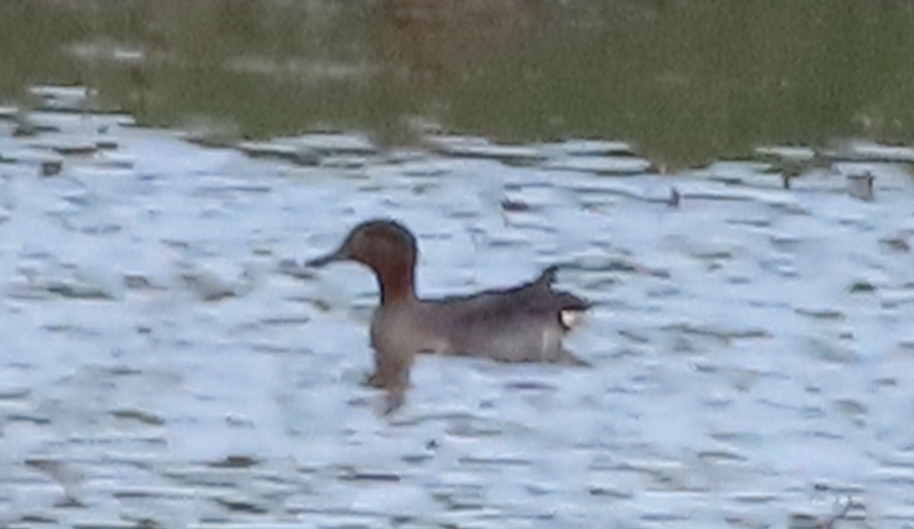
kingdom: Animalia
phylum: Chordata
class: Aves
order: Anseriformes
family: Anatidae
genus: Anas
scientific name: Anas crecca
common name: Eurasian teal
